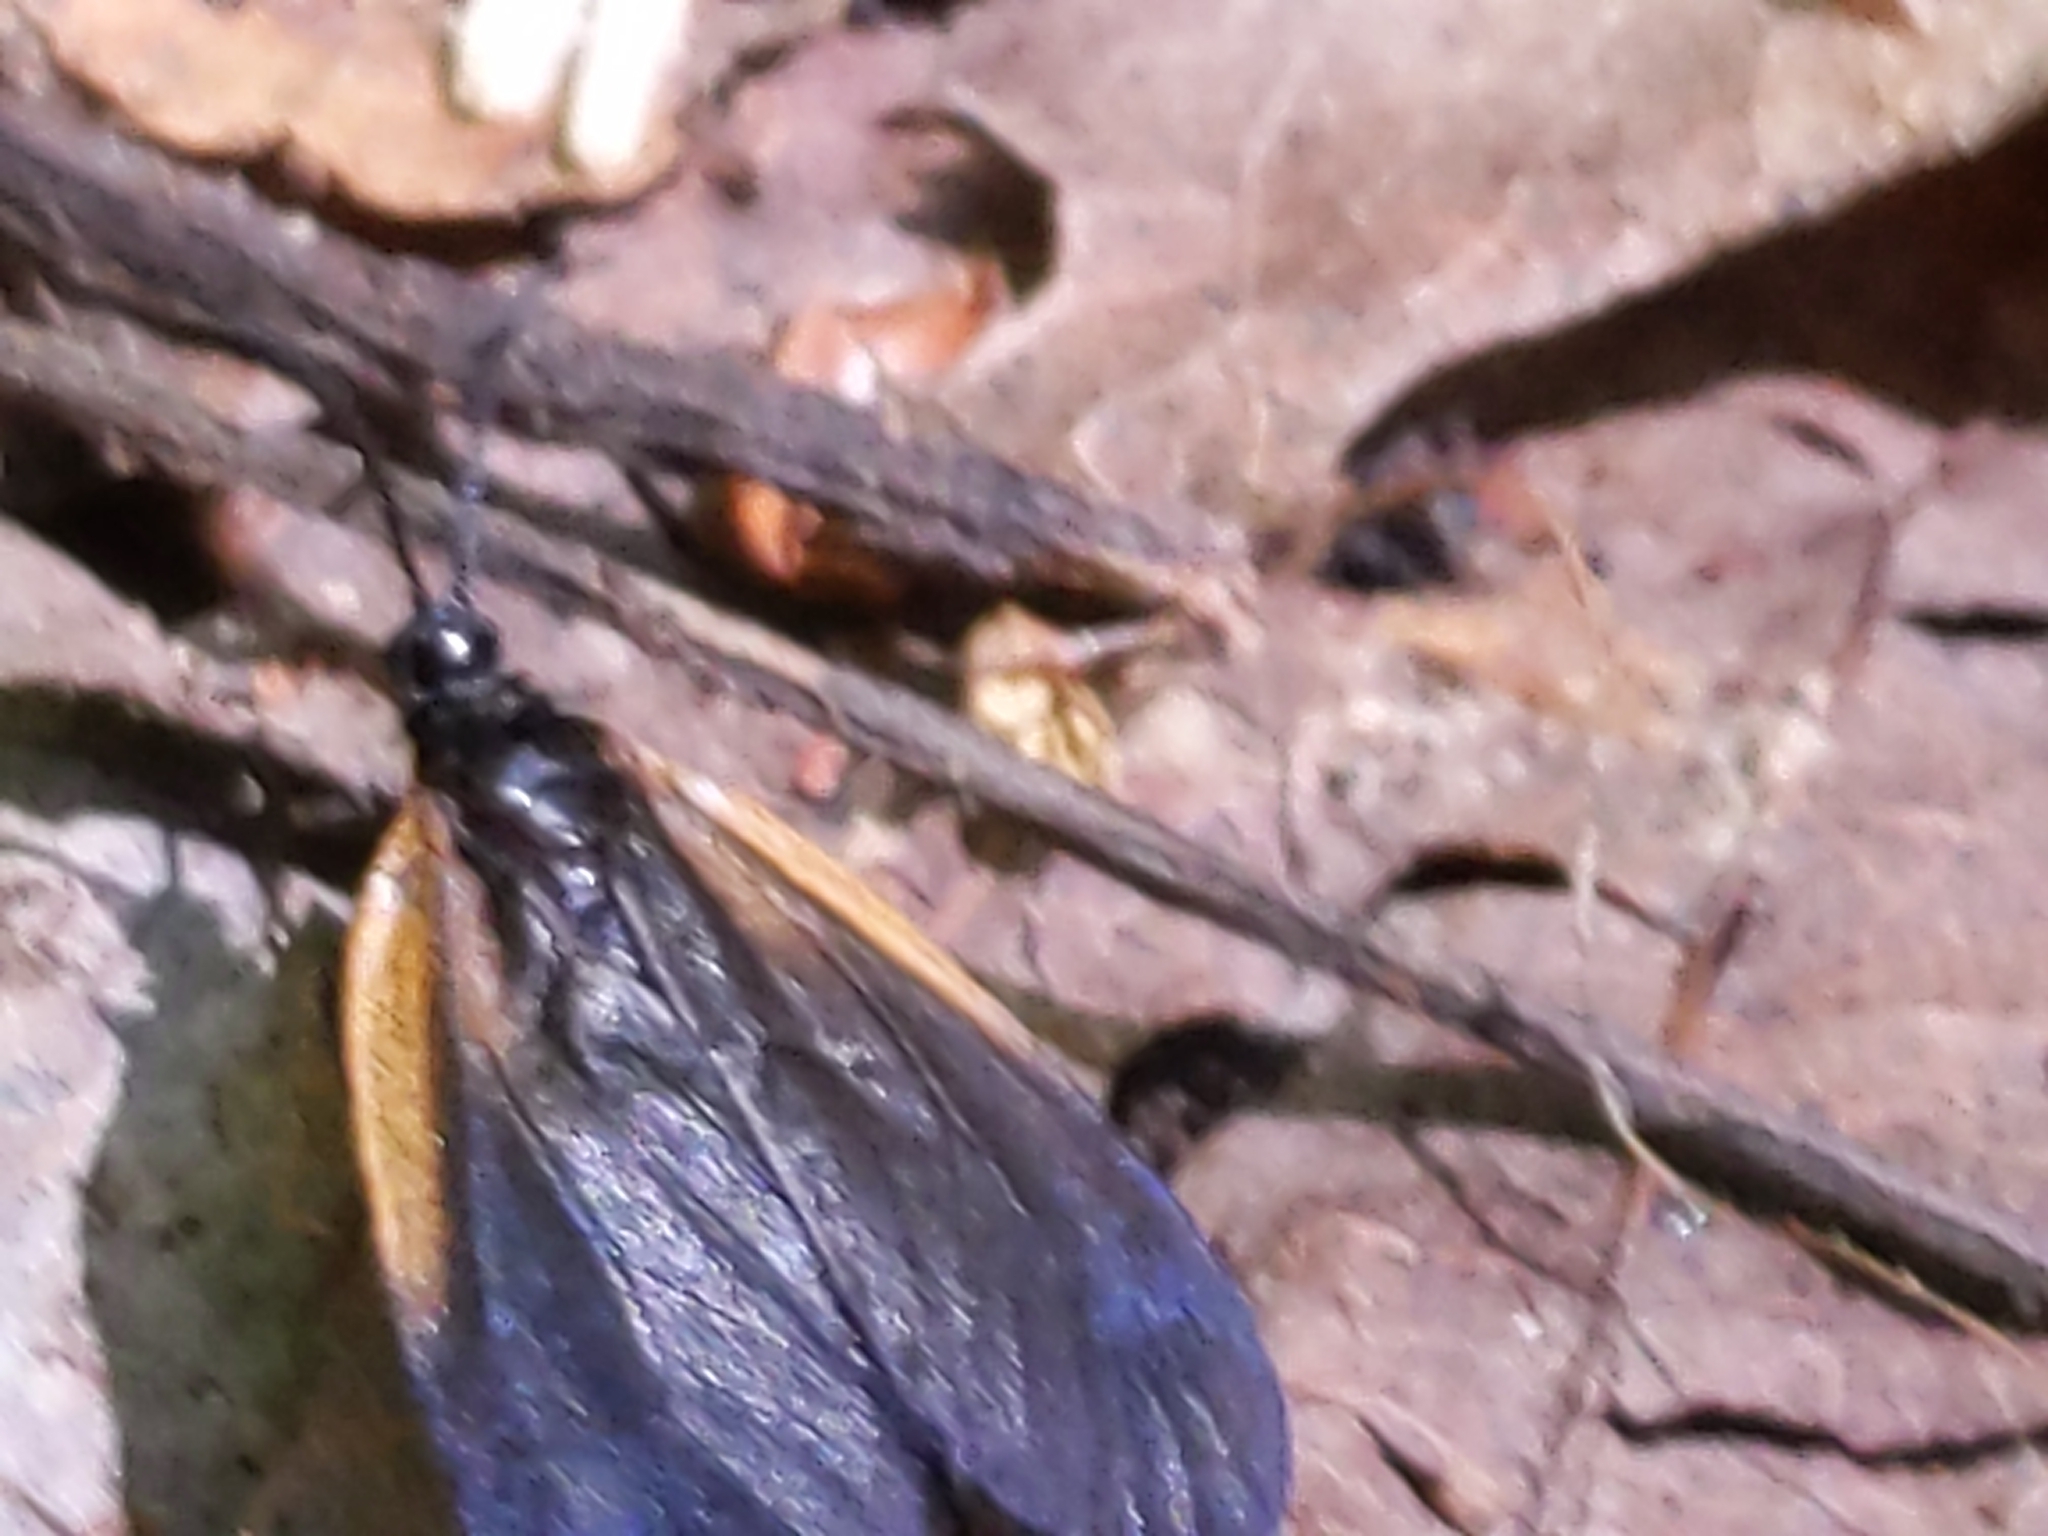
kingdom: Animalia
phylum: Arthropoda
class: Insecta
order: Lepidoptera
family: Zygaenidae
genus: Malthaca
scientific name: Malthaca dimidiata
